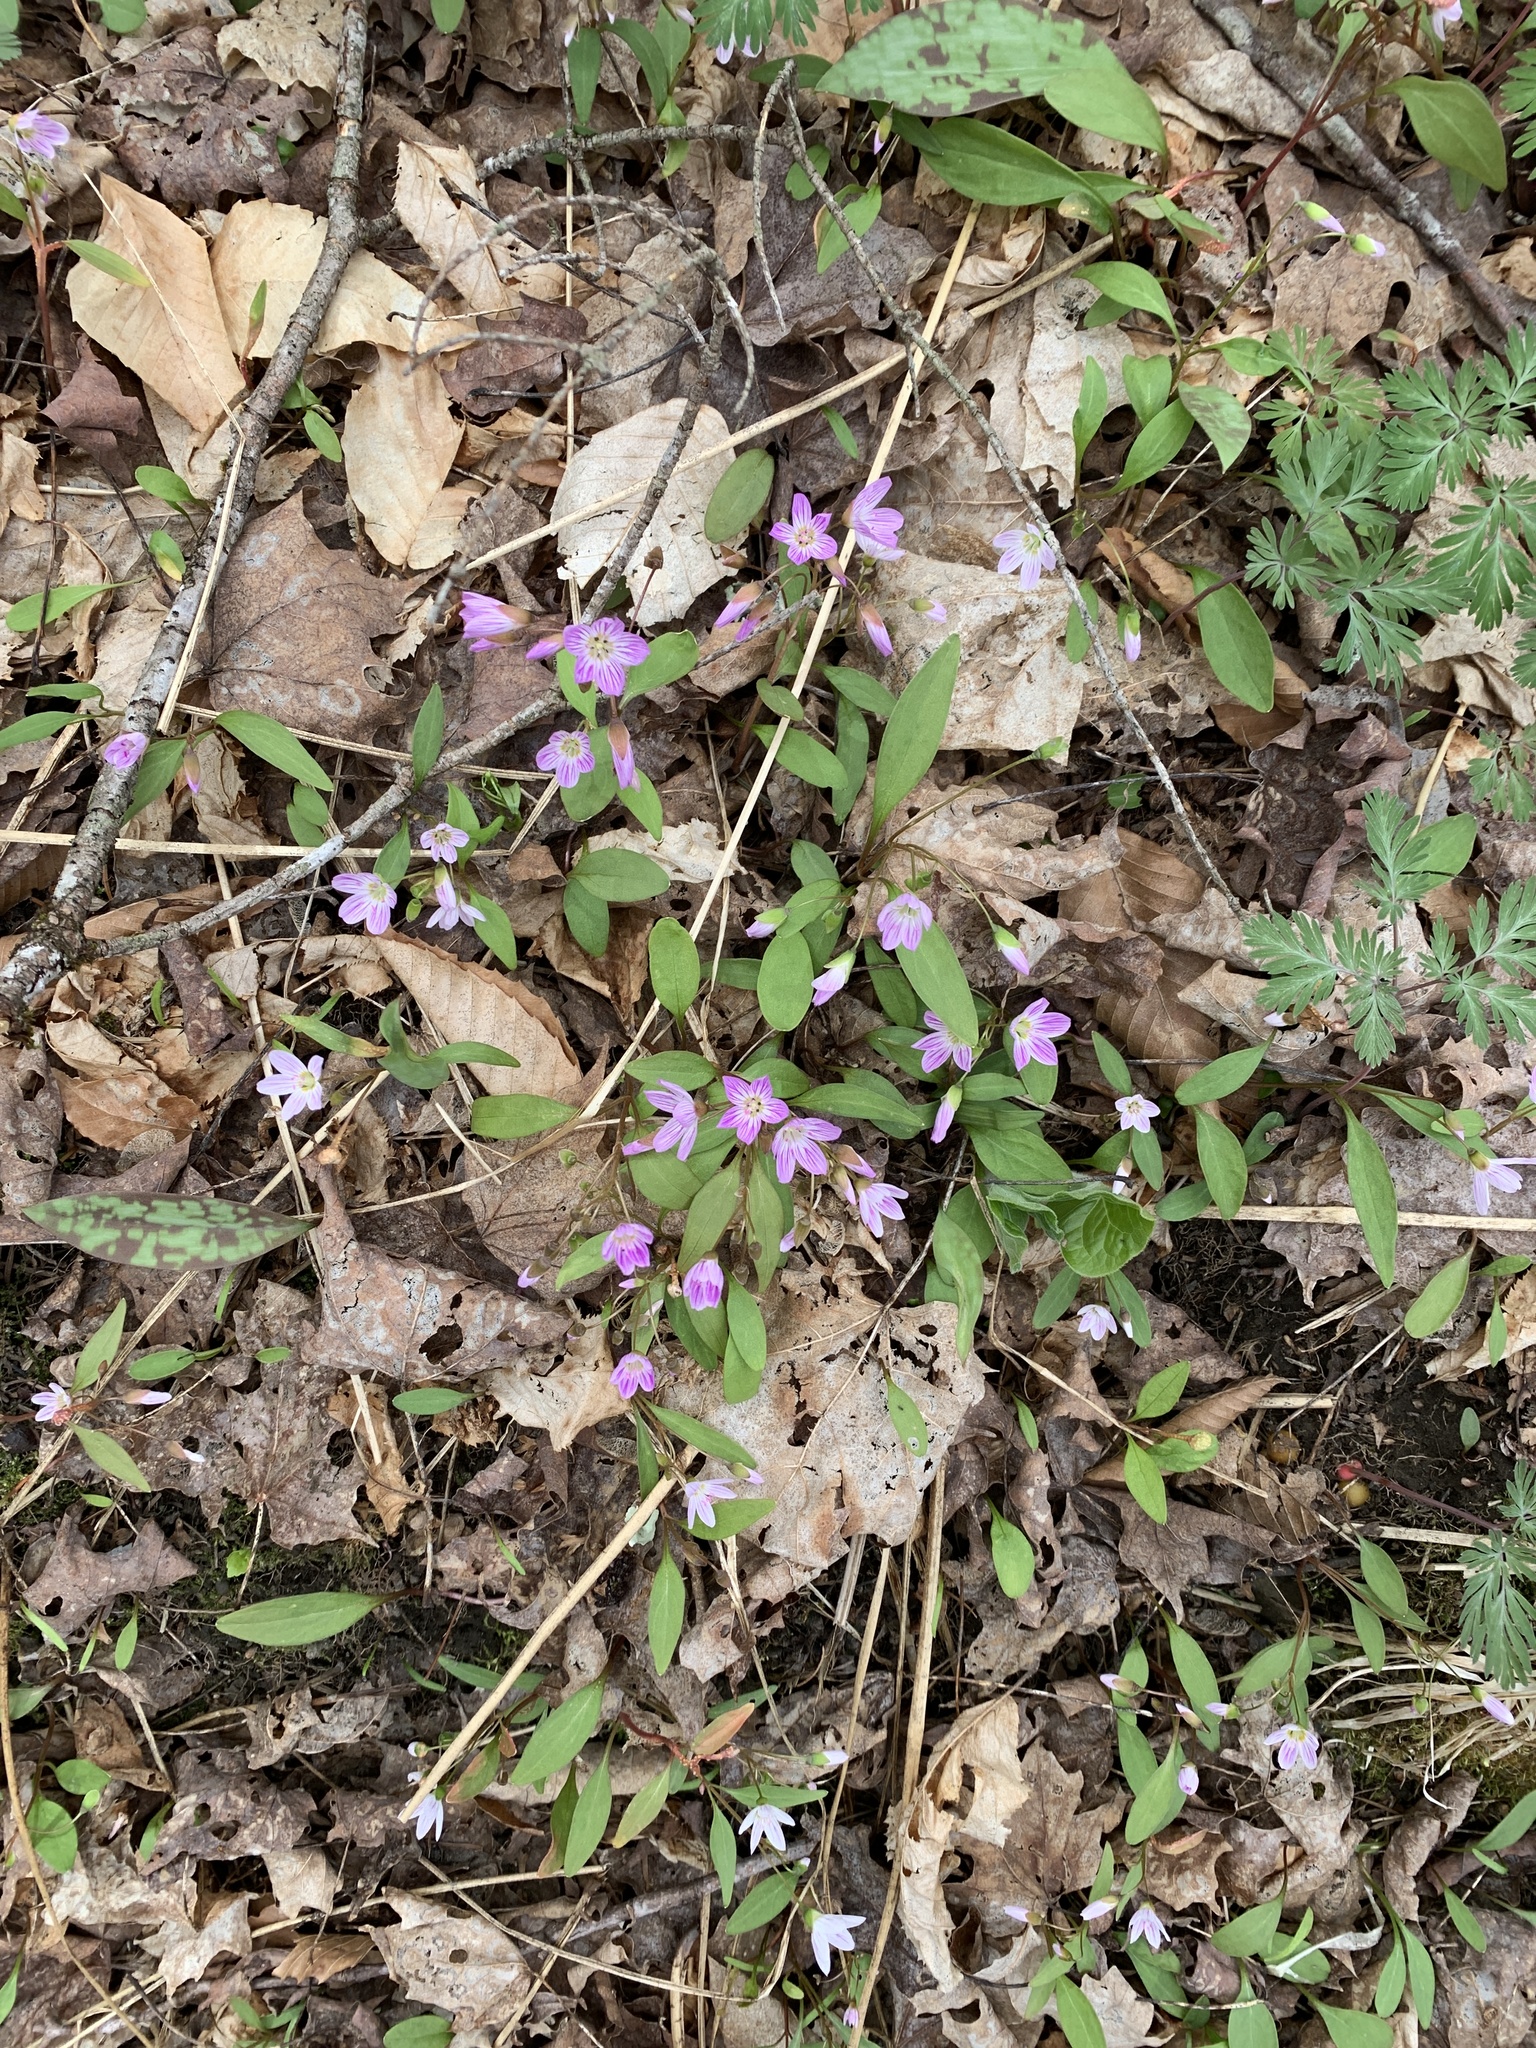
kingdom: Plantae
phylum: Tracheophyta
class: Magnoliopsida
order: Caryophyllales
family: Montiaceae
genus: Claytonia
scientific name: Claytonia caroliniana
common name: Carolina spring beauty
